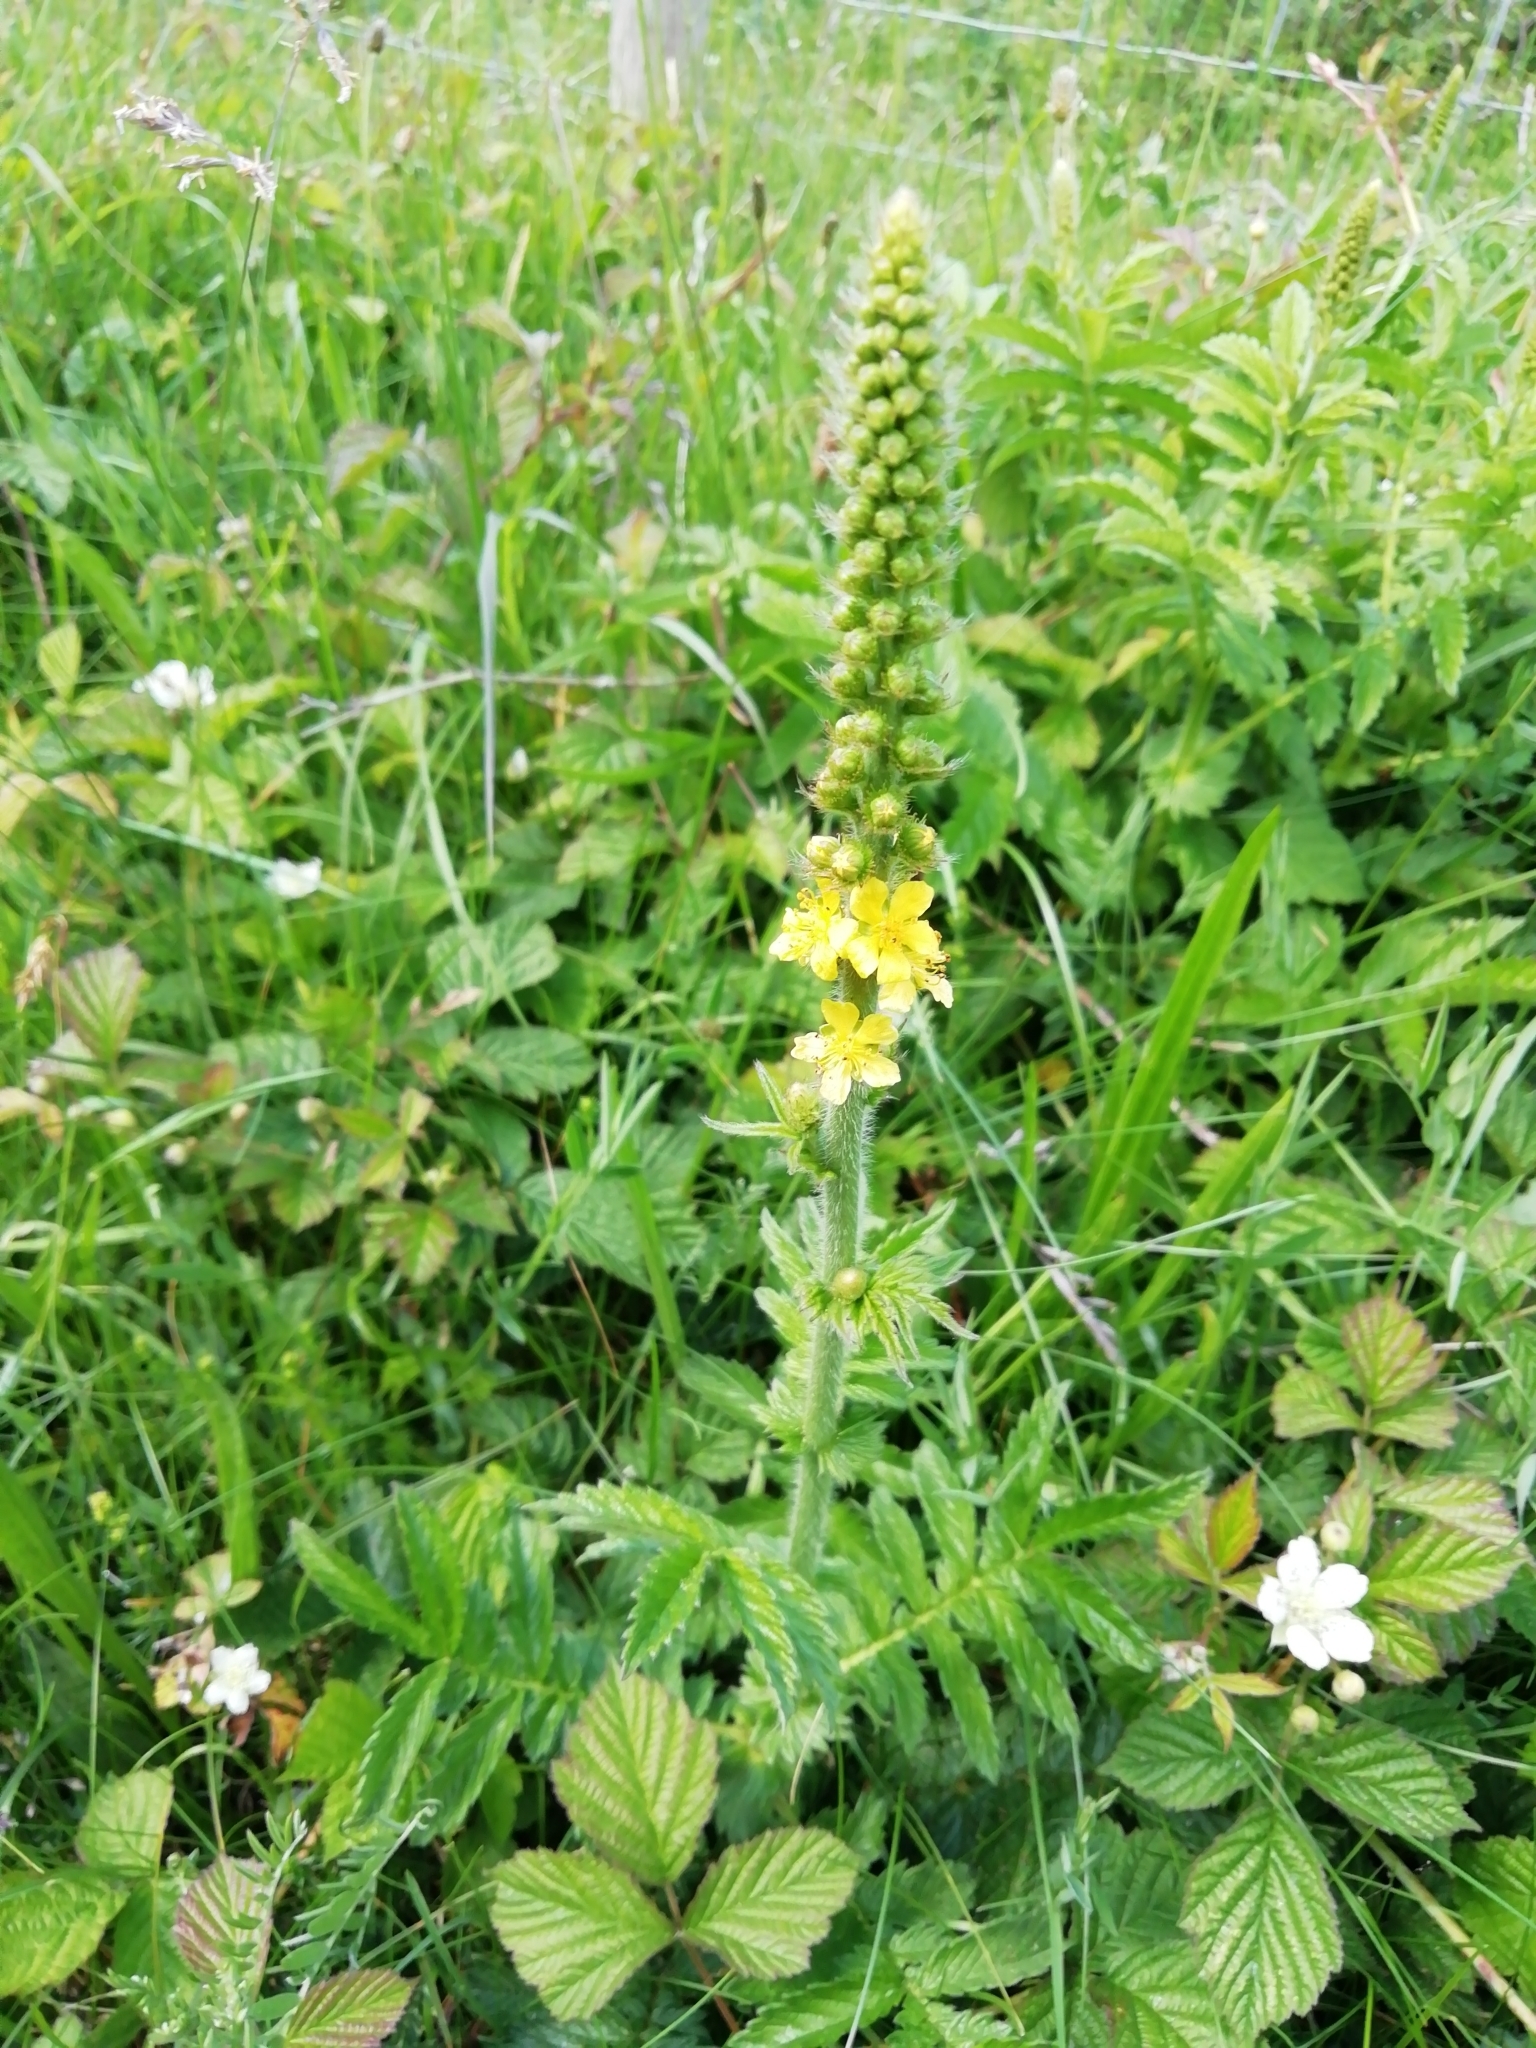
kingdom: Plantae
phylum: Tracheophyta
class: Magnoliopsida
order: Rosales
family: Rosaceae
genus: Agrimonia
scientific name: Agrimonia eupatoria
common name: Agrimony
